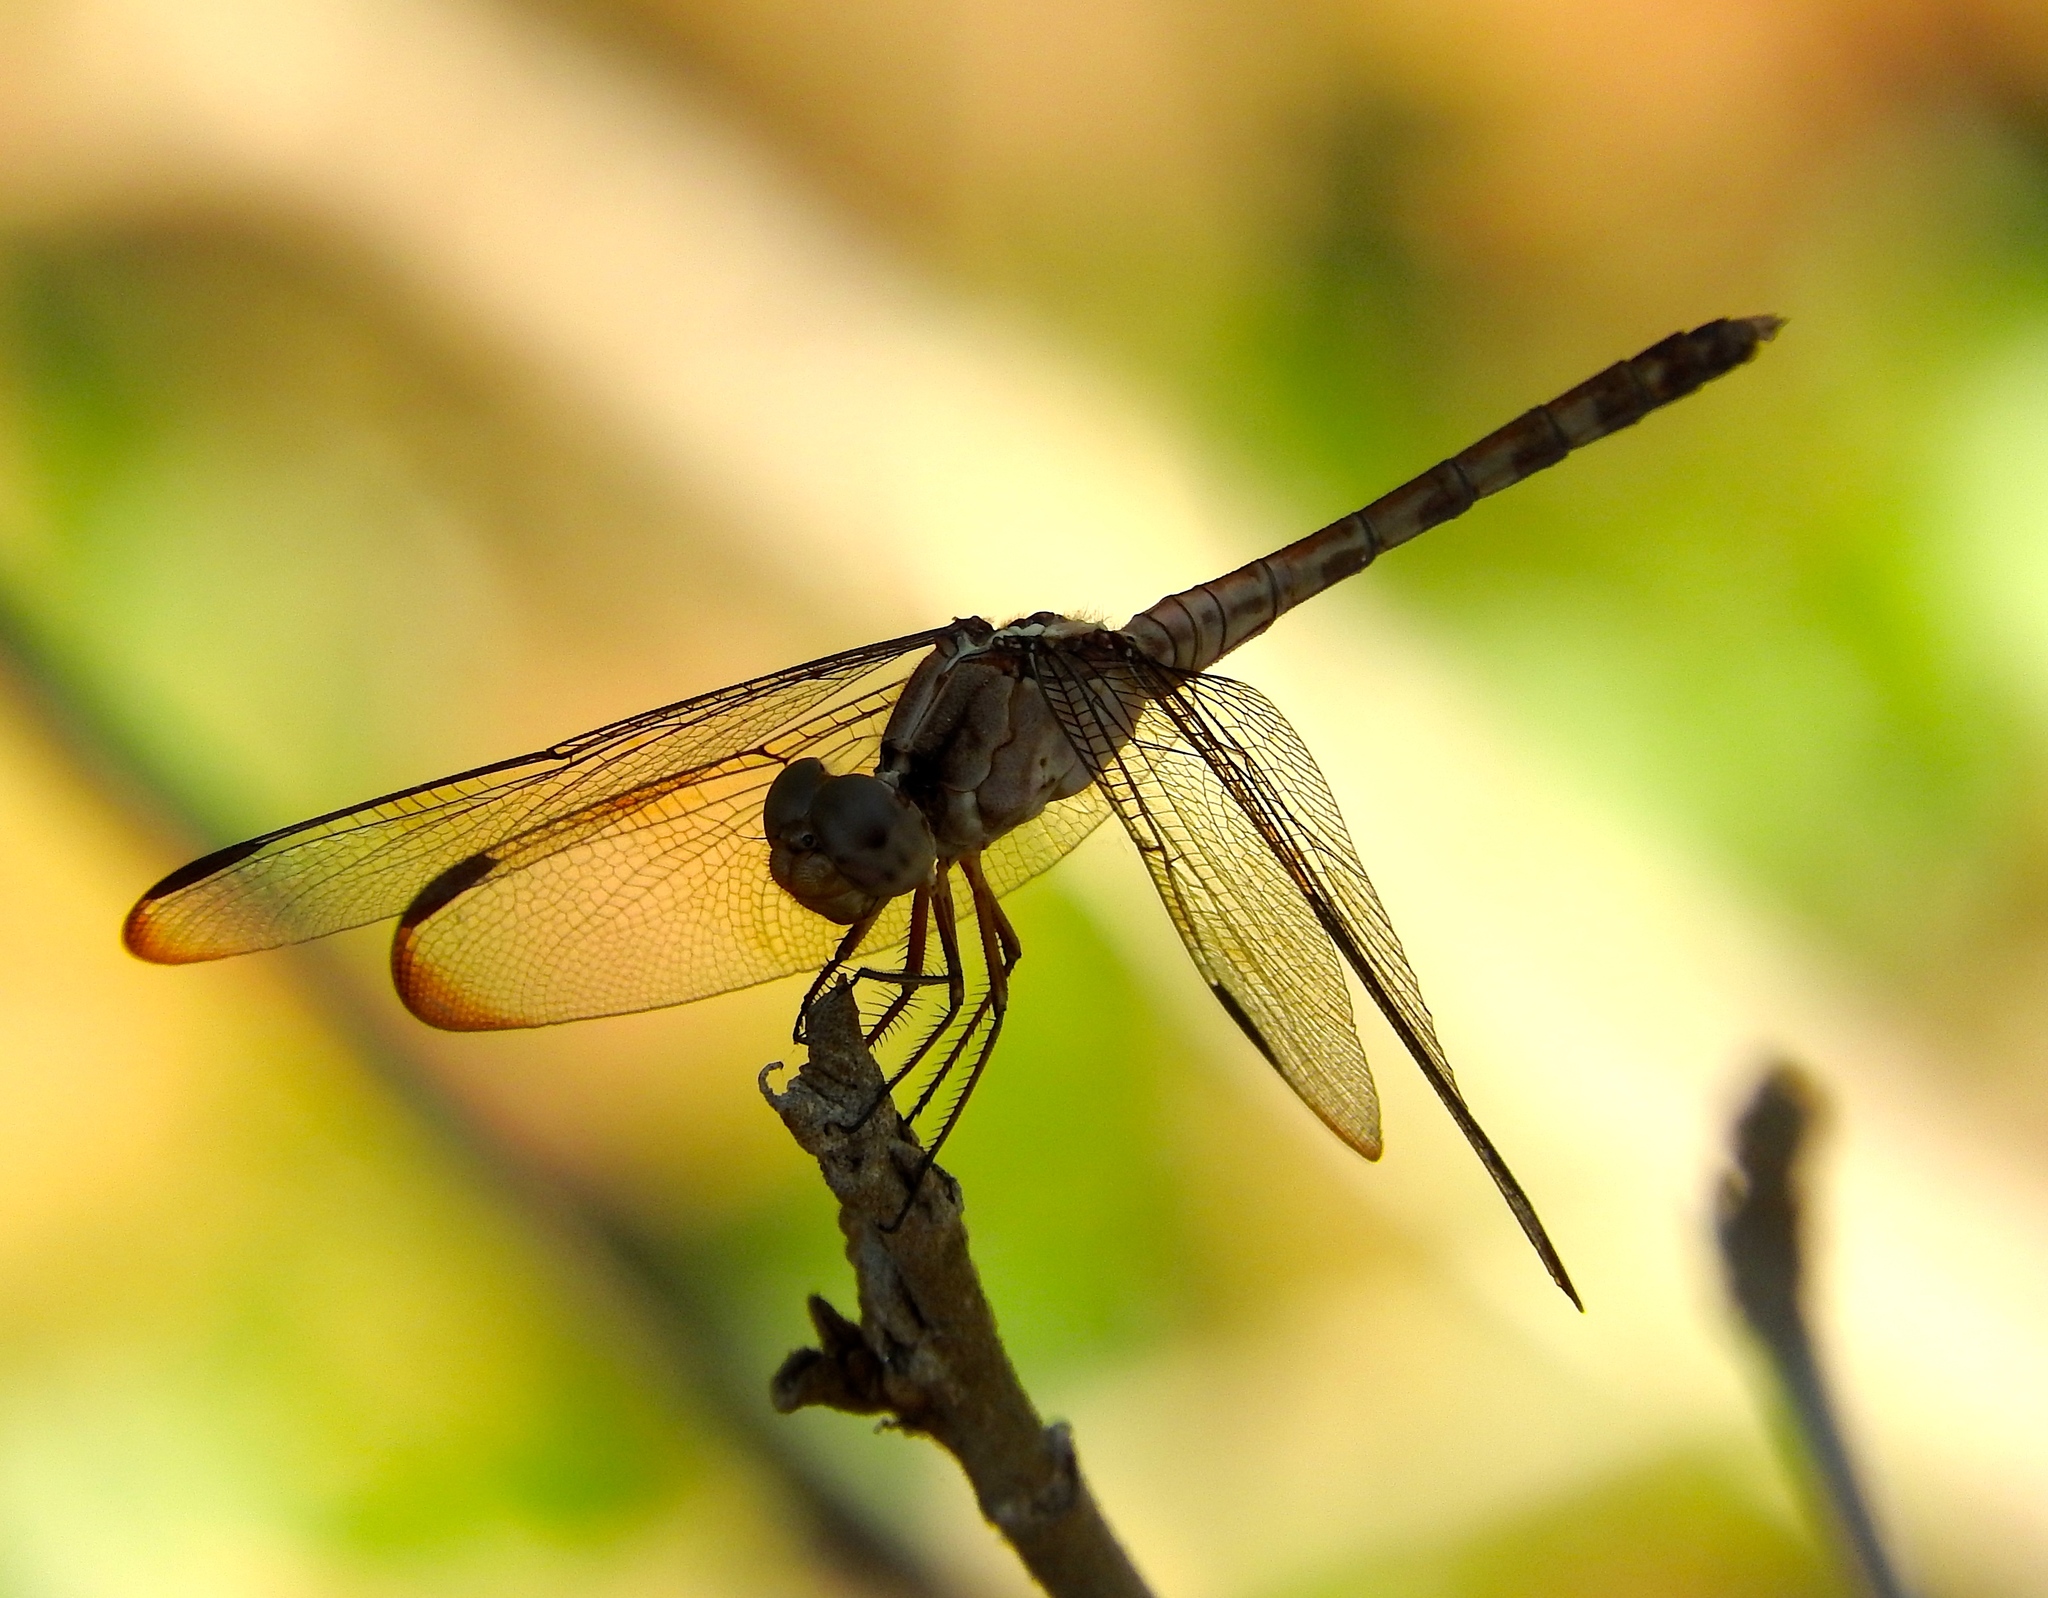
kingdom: Animalia
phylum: Arthropoda
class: Insecta
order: Odonata
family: Libellulidae
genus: Erythrodiplax
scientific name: Erythrodiplax
